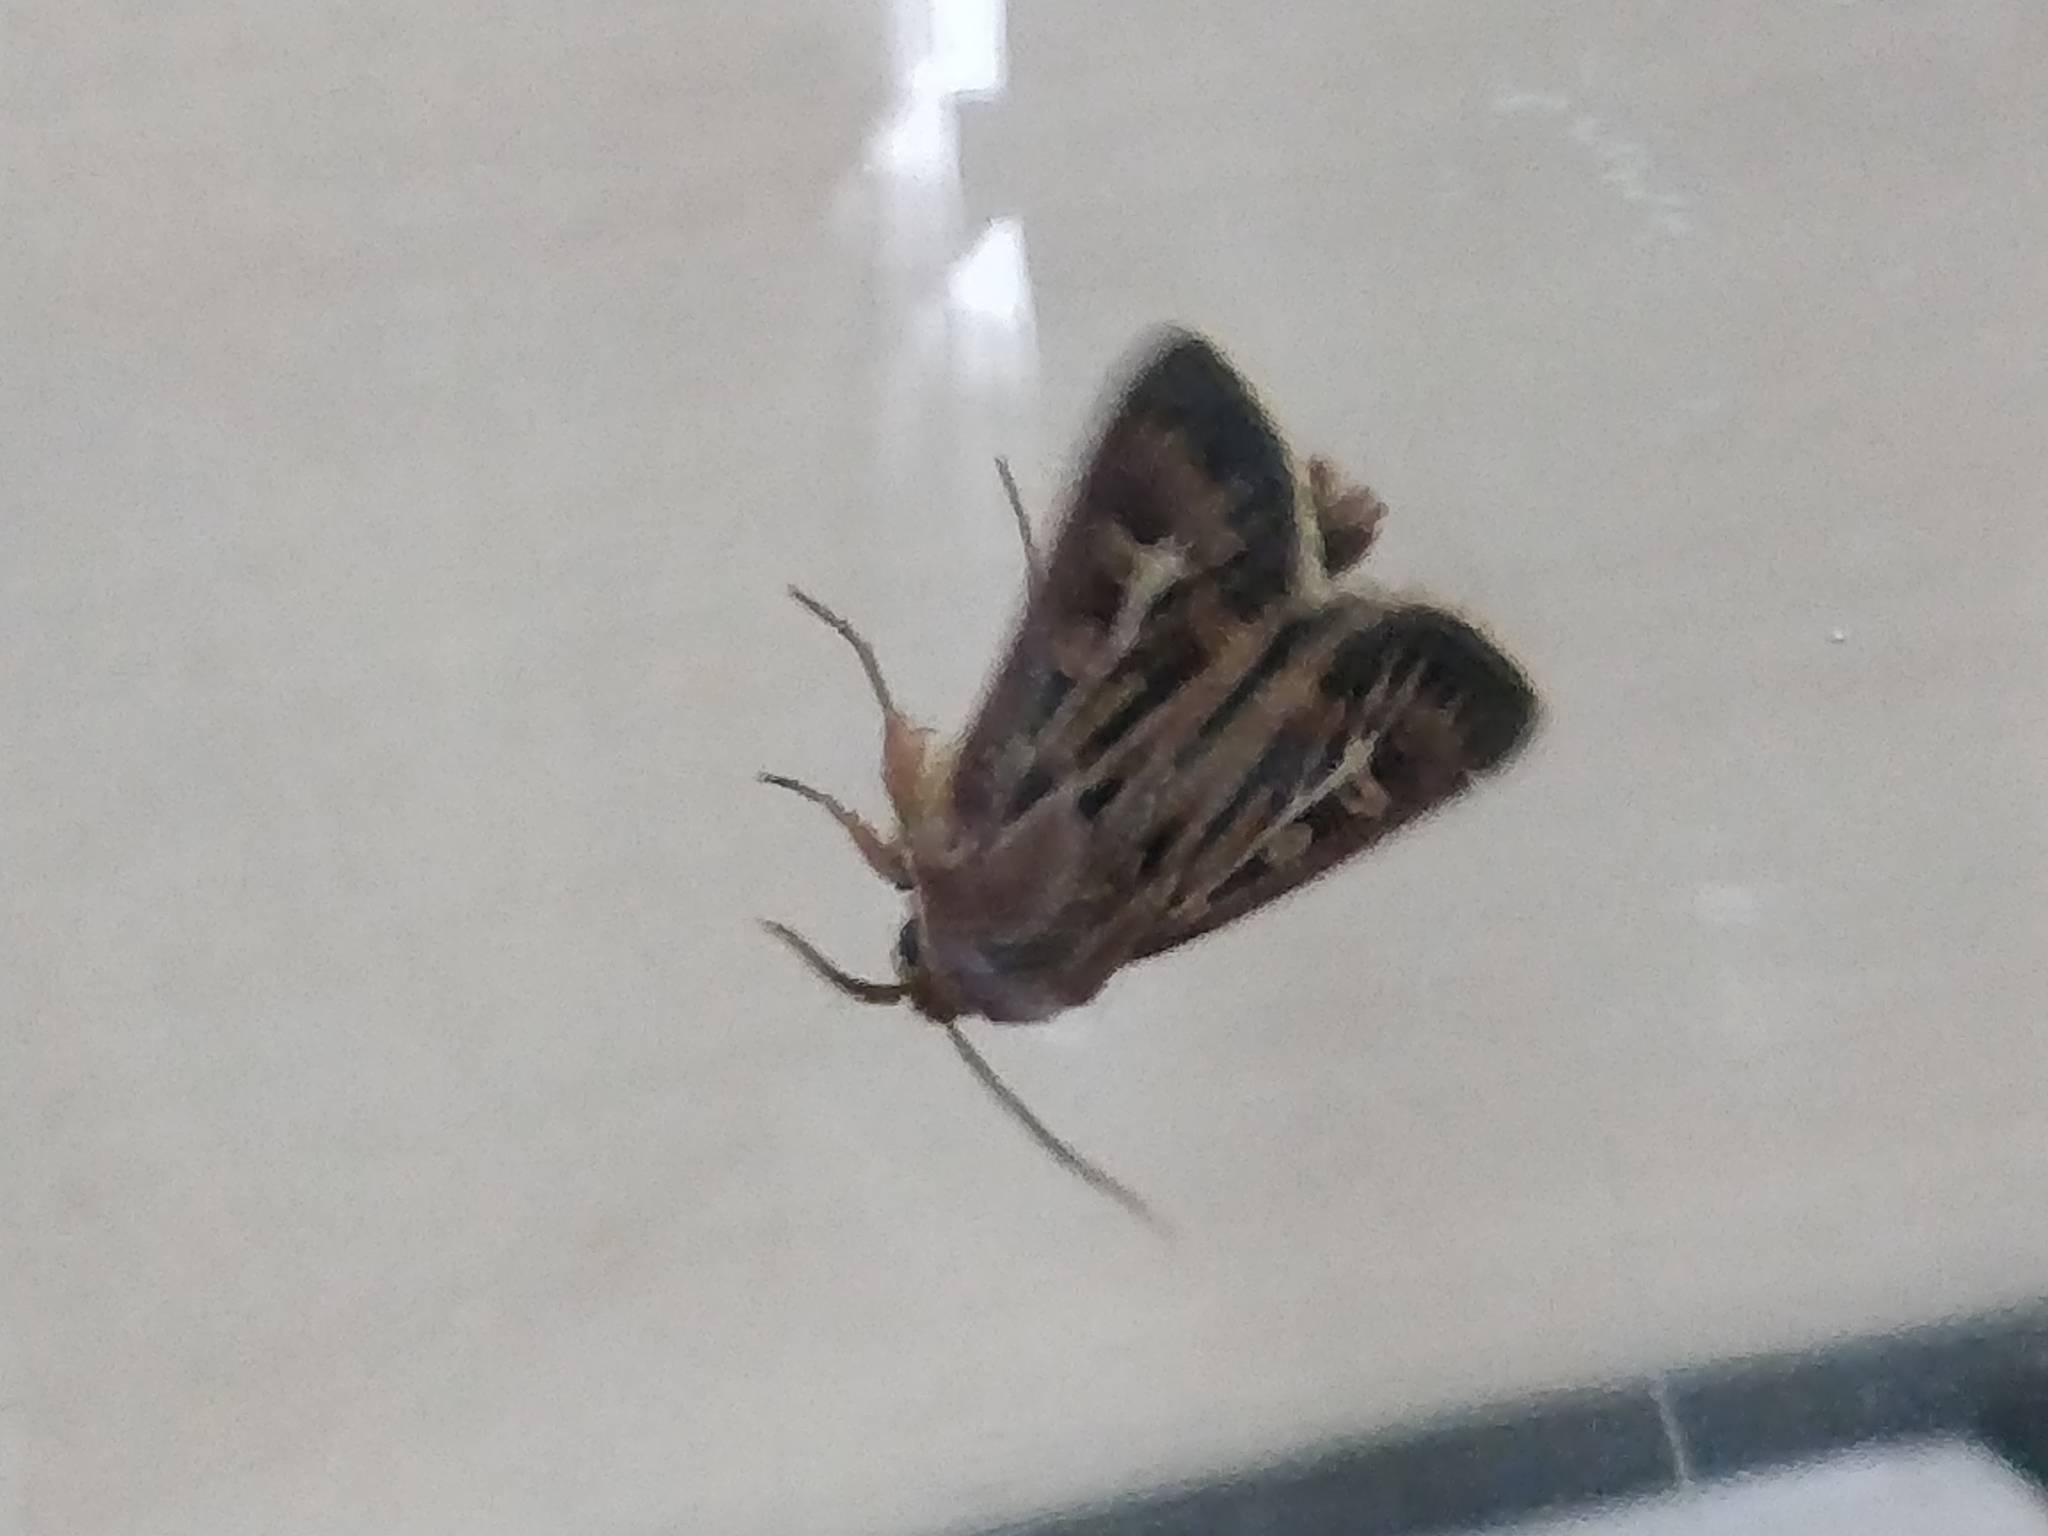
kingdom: Animalia
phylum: Arthropoda
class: Insecta
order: Lepidoptera
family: Noctuidae
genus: Cerapteryx
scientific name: Cerapteryx graminis
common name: Antler moth
